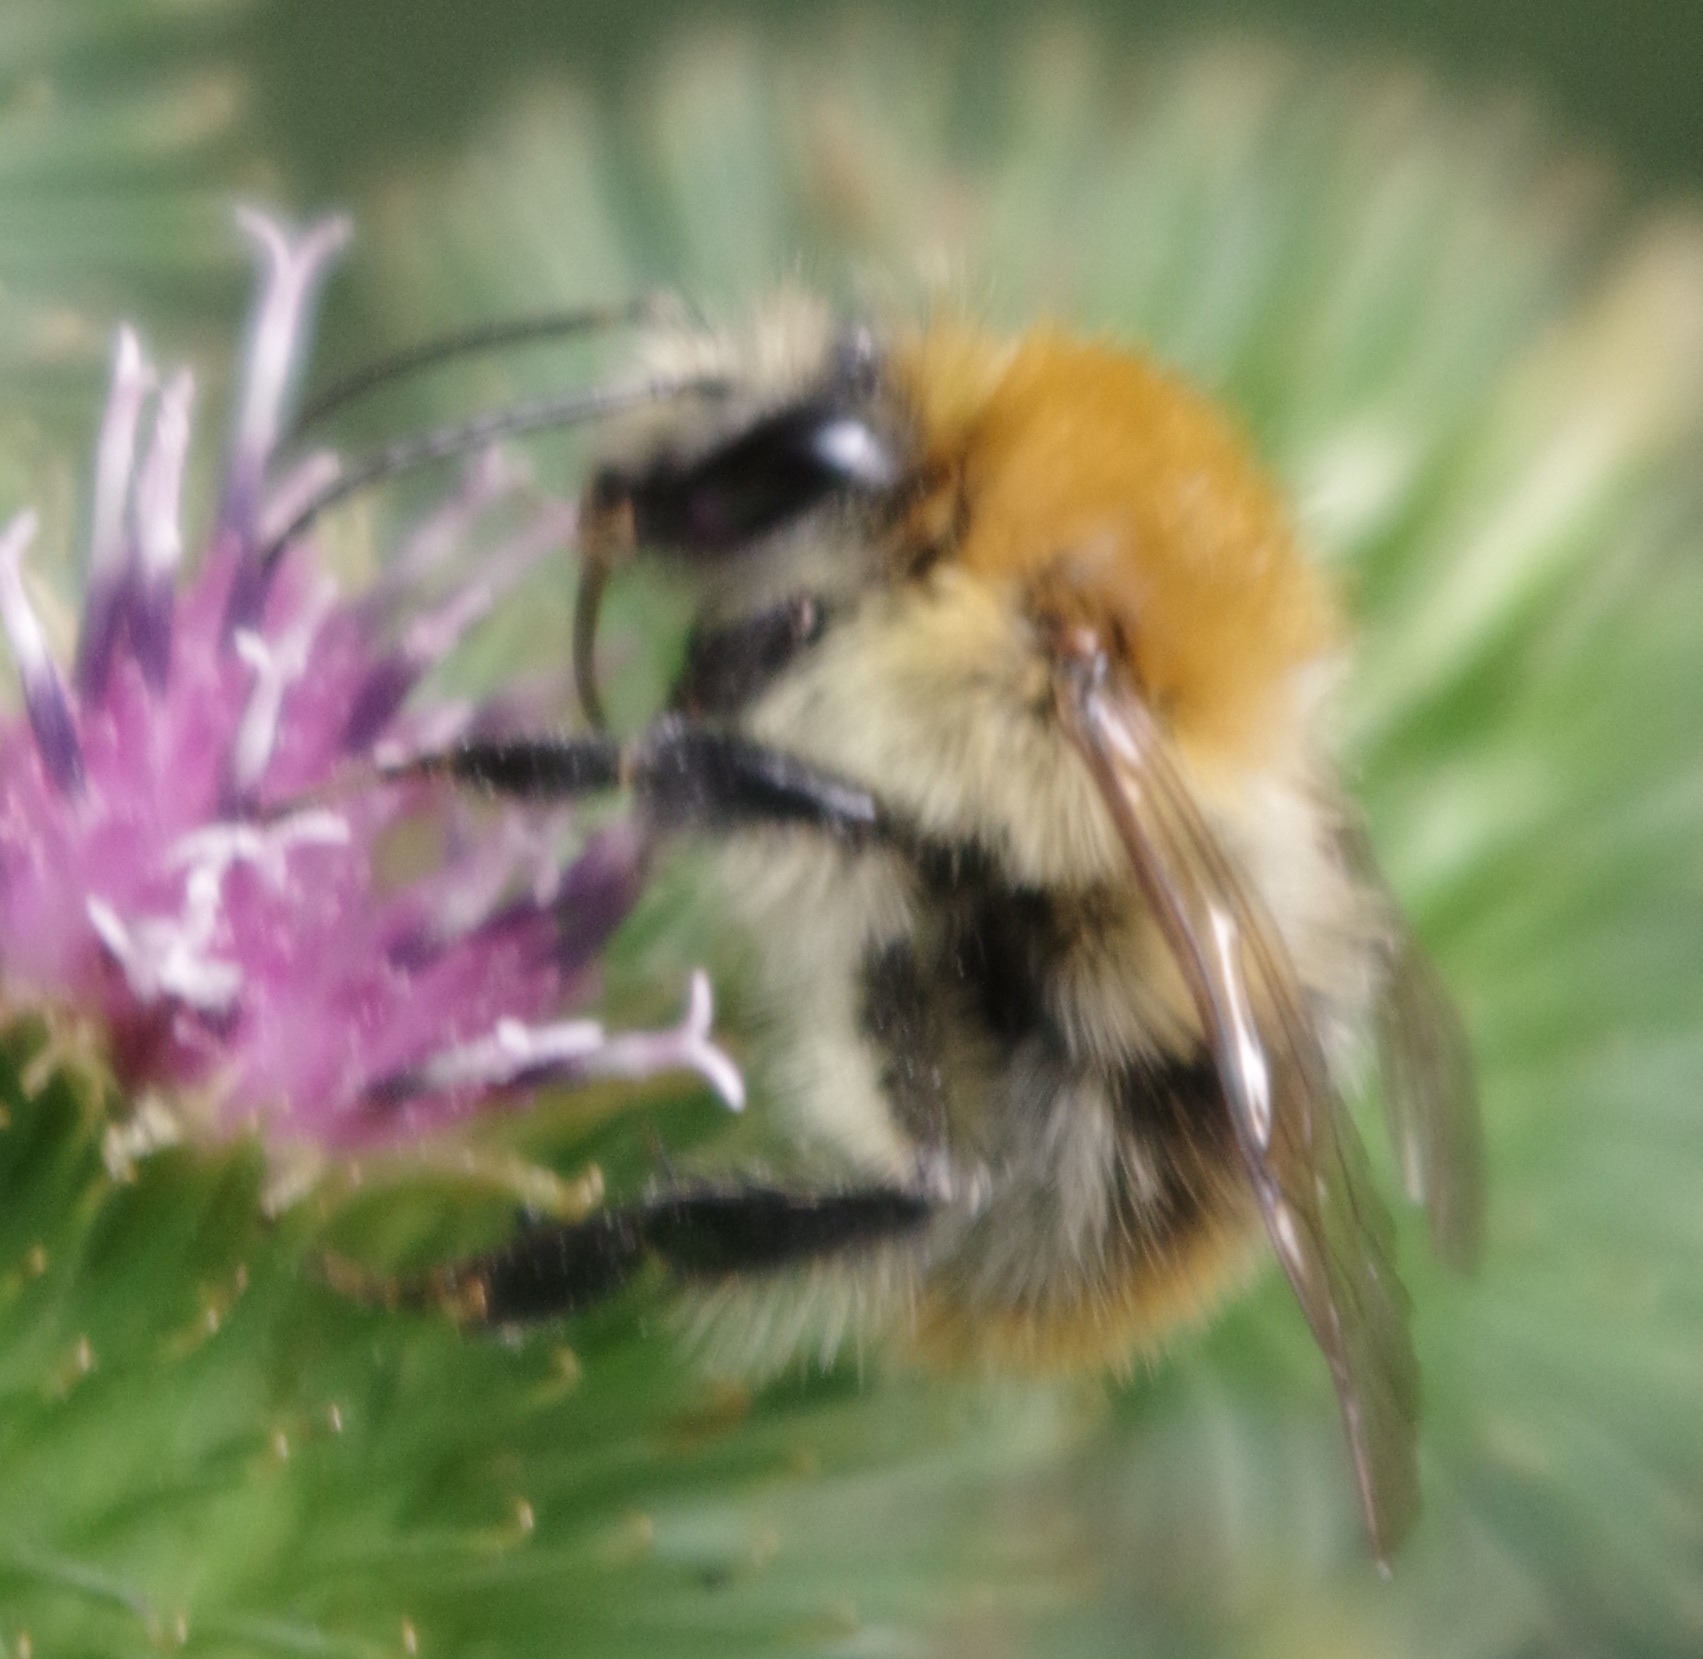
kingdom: Animalia
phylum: Arthropoda
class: Insecta
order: Hymenoptera
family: Apidae
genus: Bombus
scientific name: Bombus pascuorum
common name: Common carder bee
